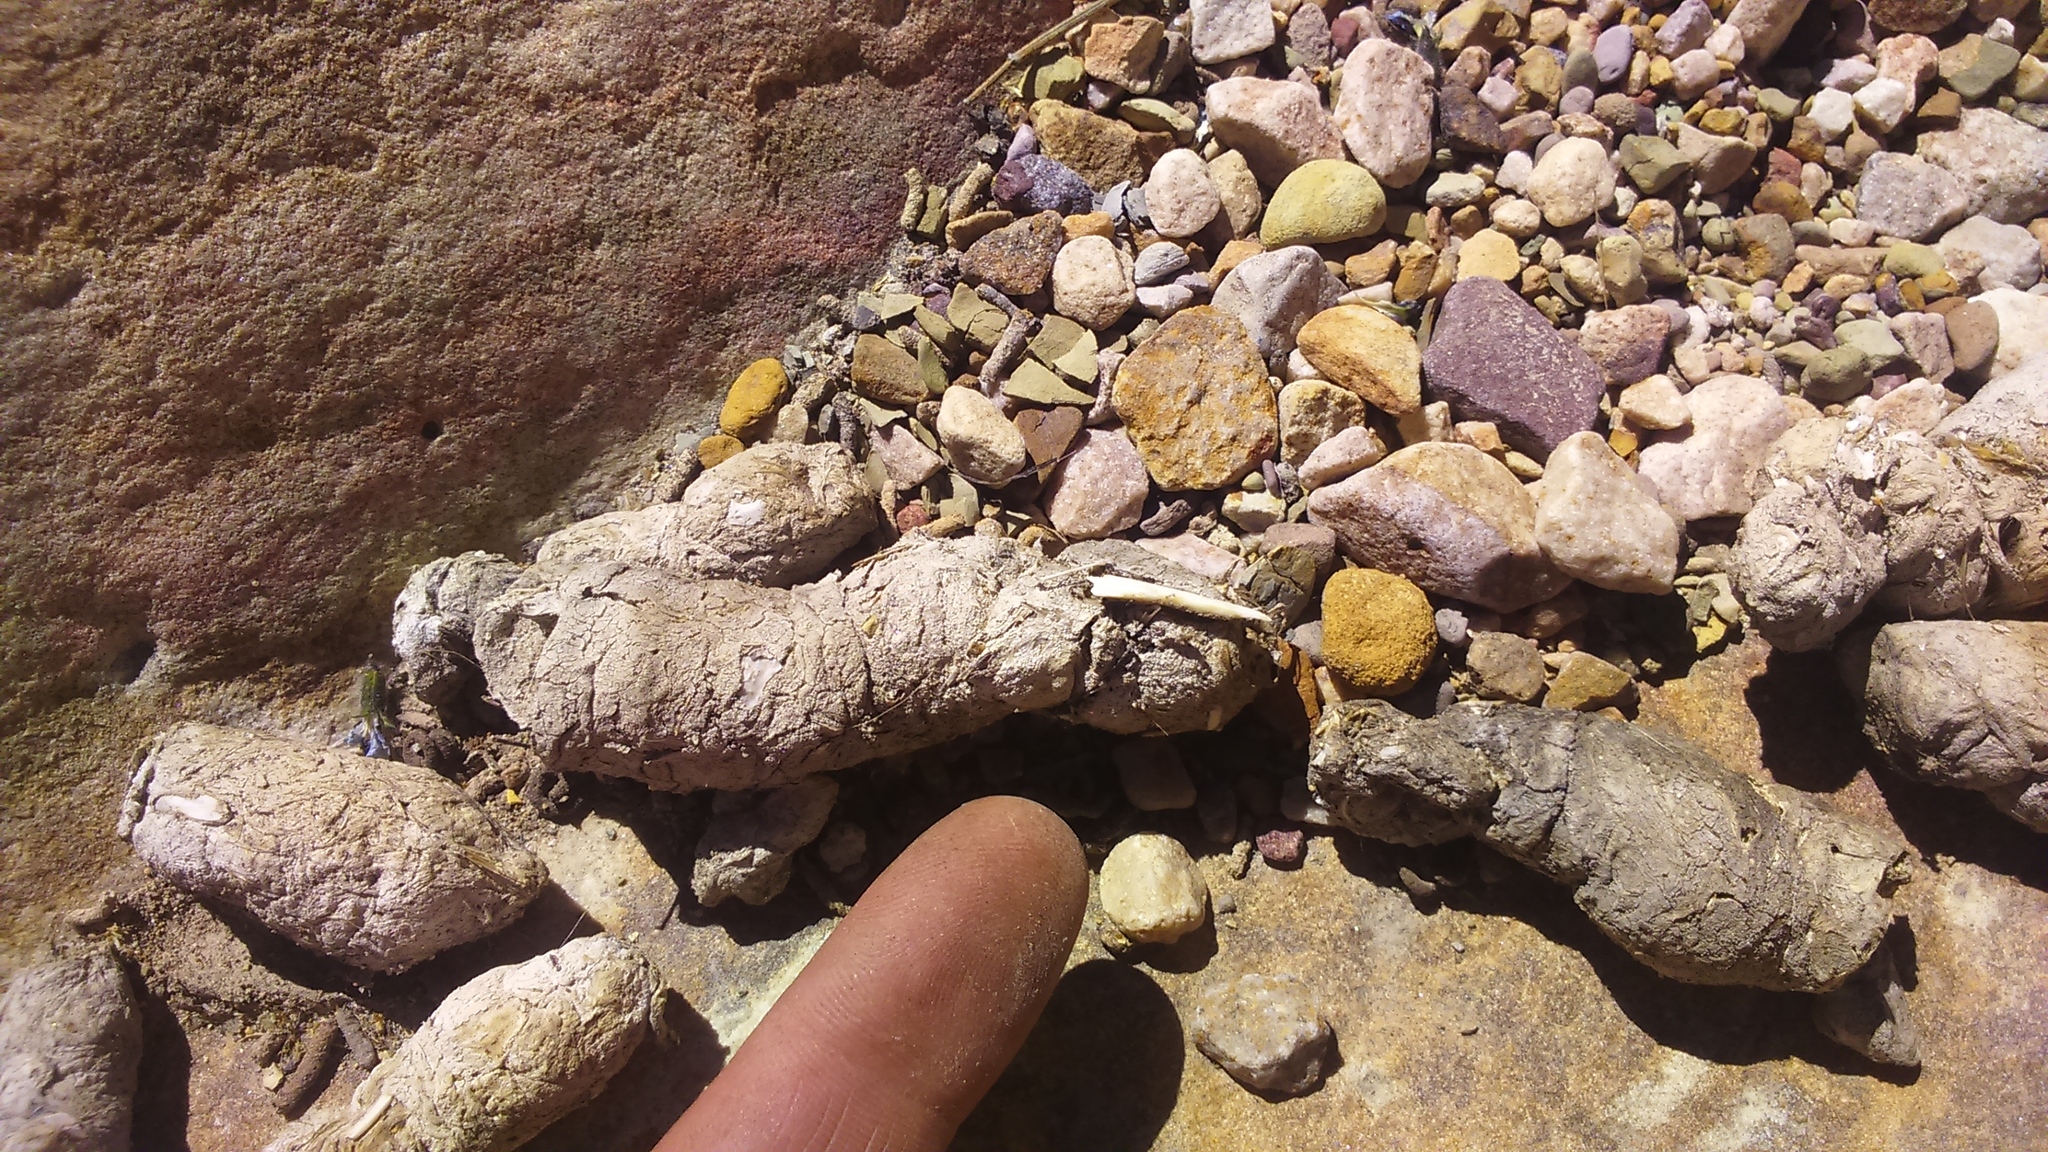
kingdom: Animalia
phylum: Chordata
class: Mammalia
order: Carnivora
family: Felidae
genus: Puma
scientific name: Puma concolor
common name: Puma
